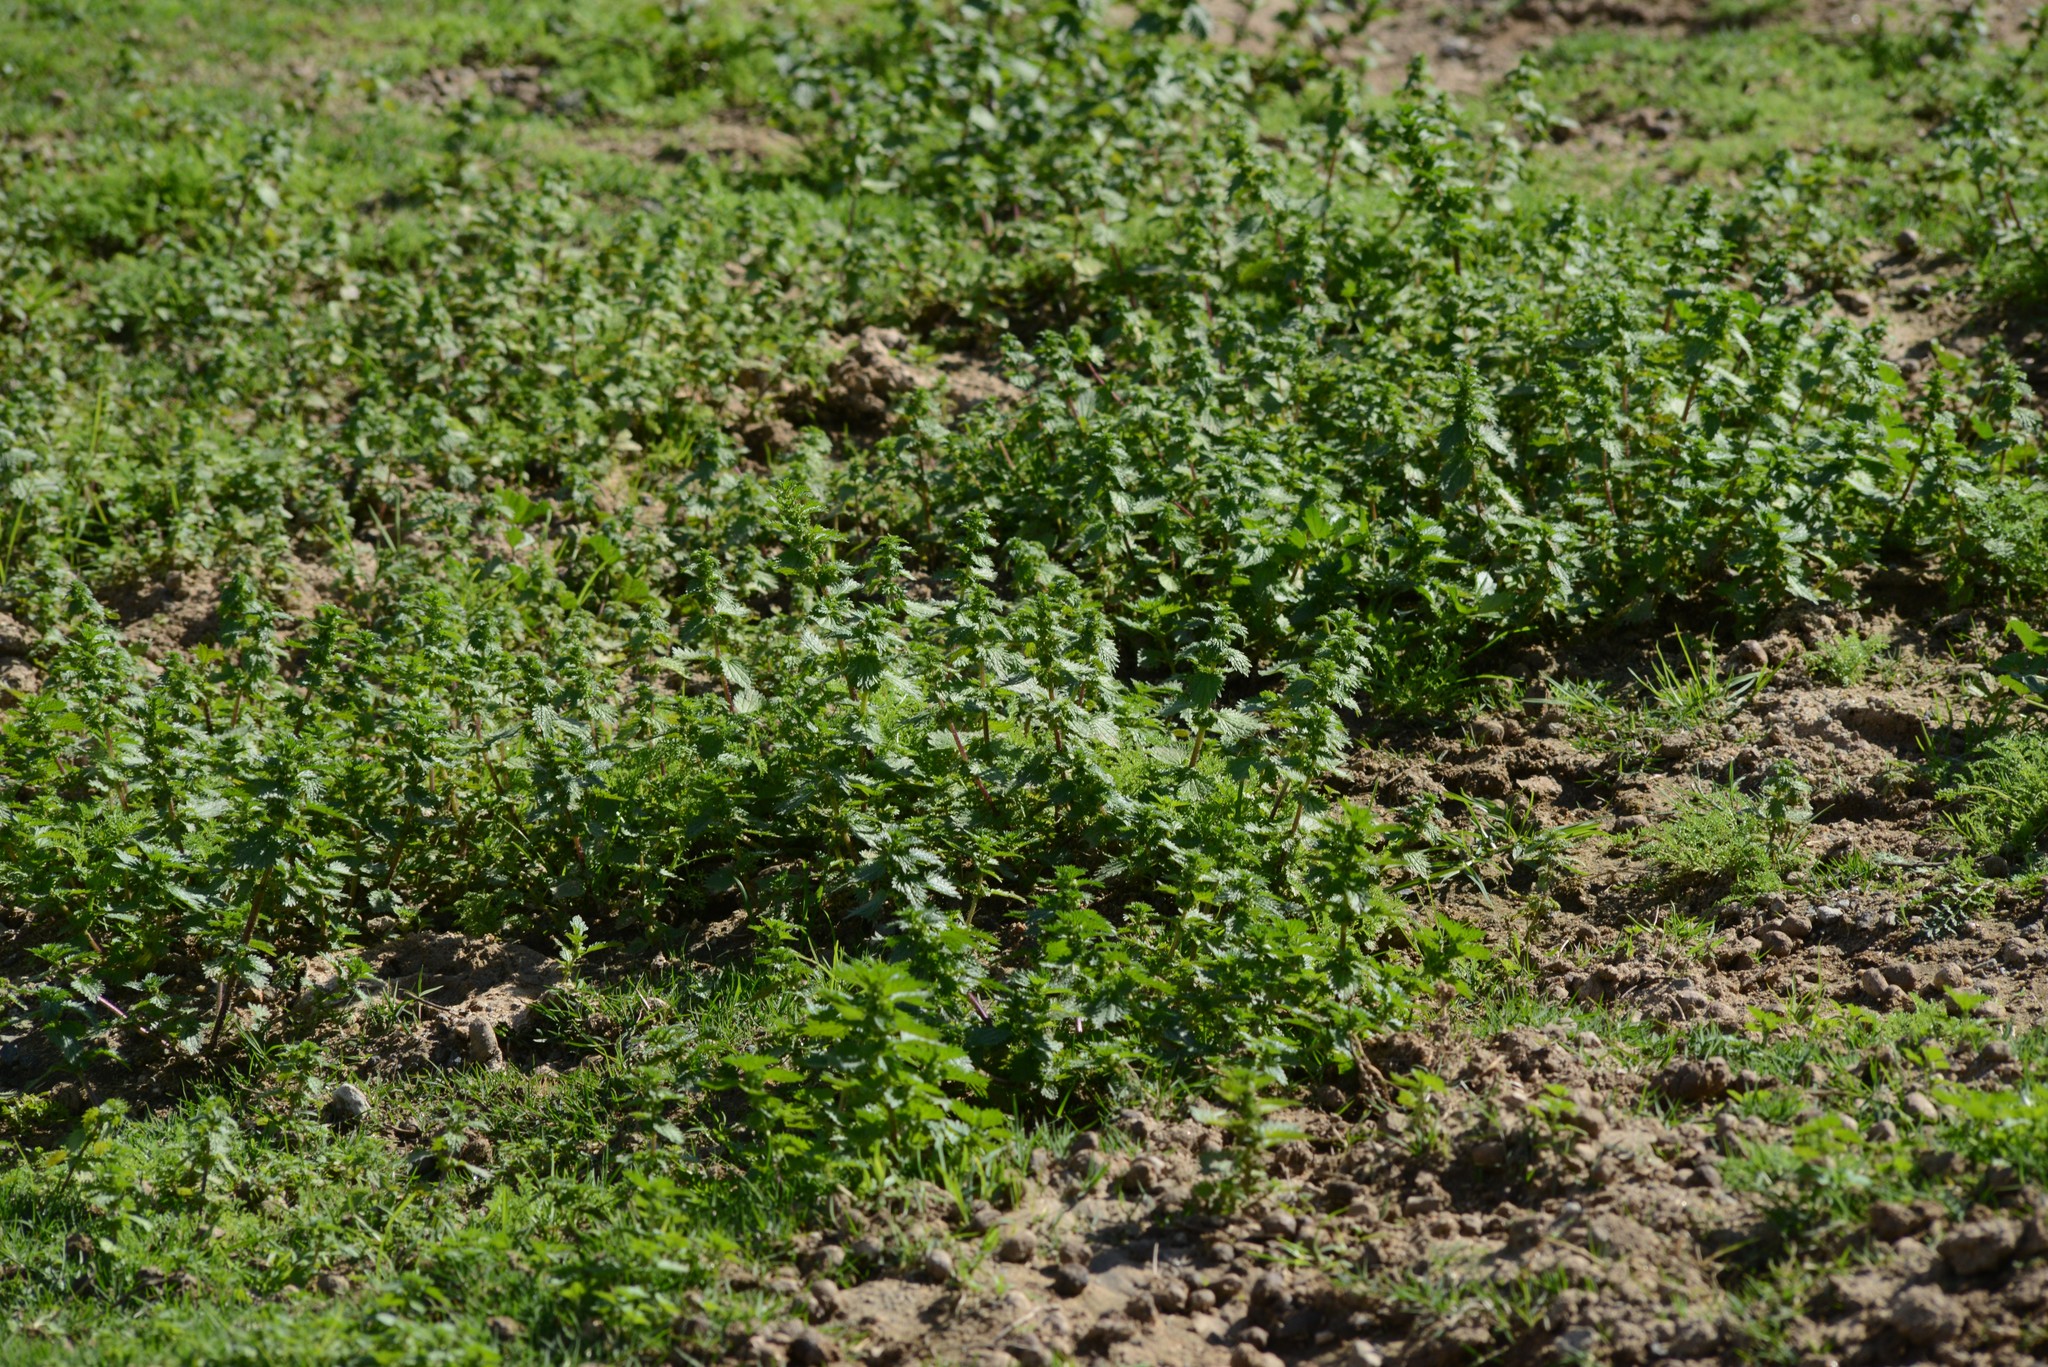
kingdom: Plantae
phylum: Tracheophyta
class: Magnoliopsida
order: Rosales
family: Urticaceae
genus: Urtica
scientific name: Urtica urens
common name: Dwarf nettle
